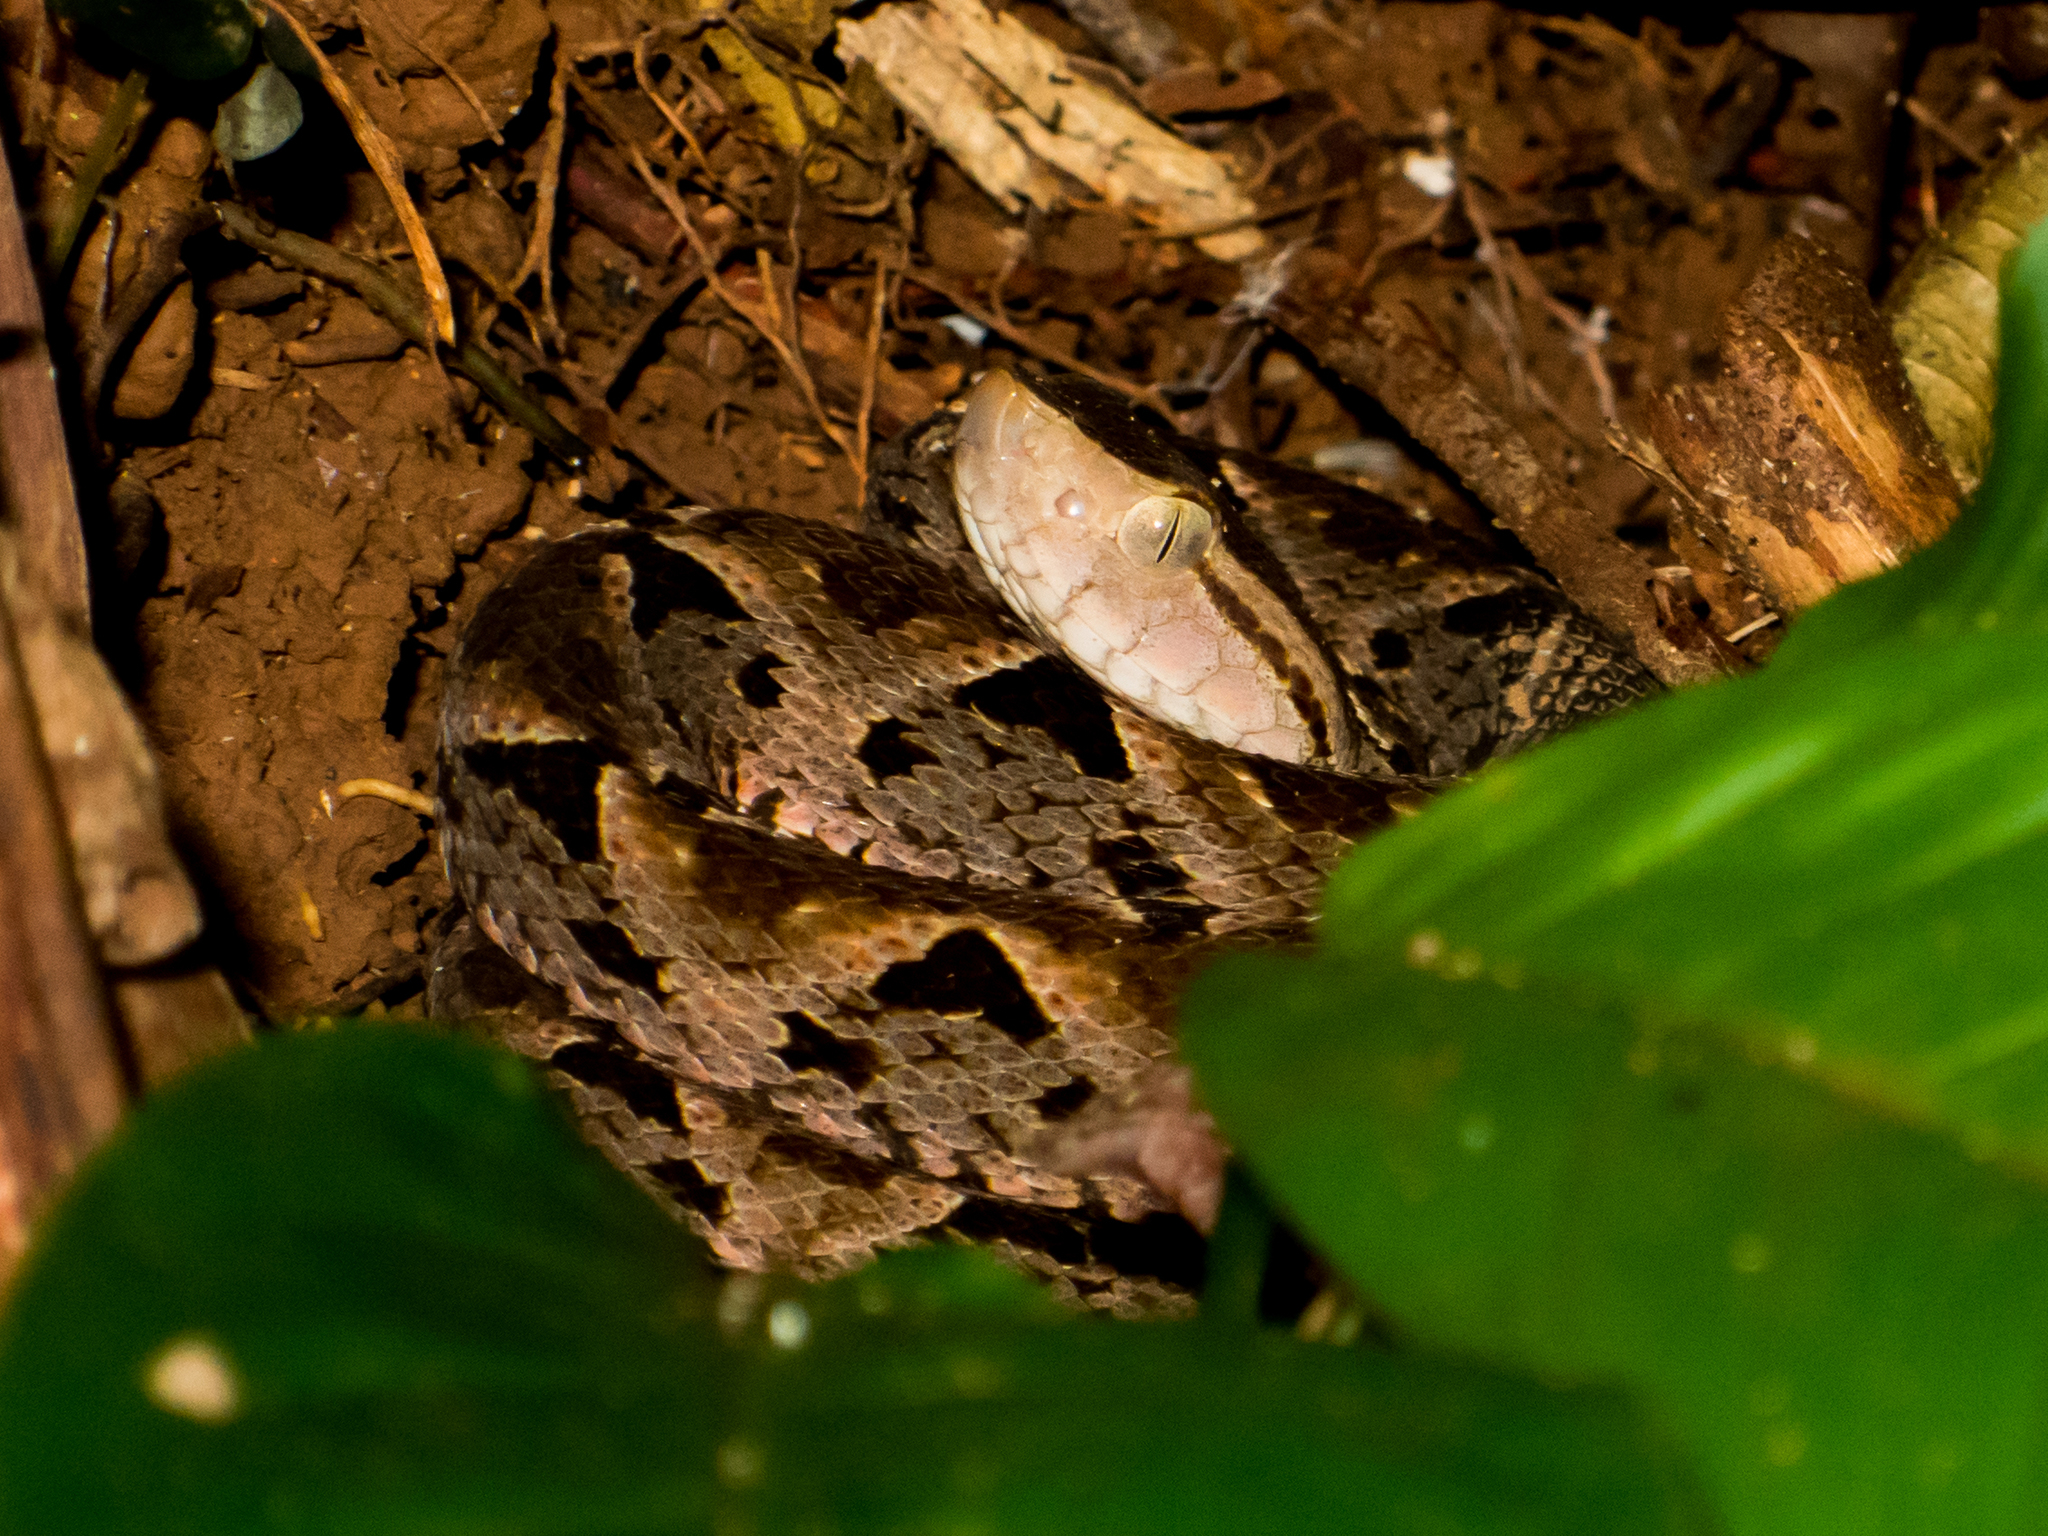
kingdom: Animalia
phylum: Chordata
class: Squamata
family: Viperidae
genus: Bothrops
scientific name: Bothrops asper
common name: Terciopelo
